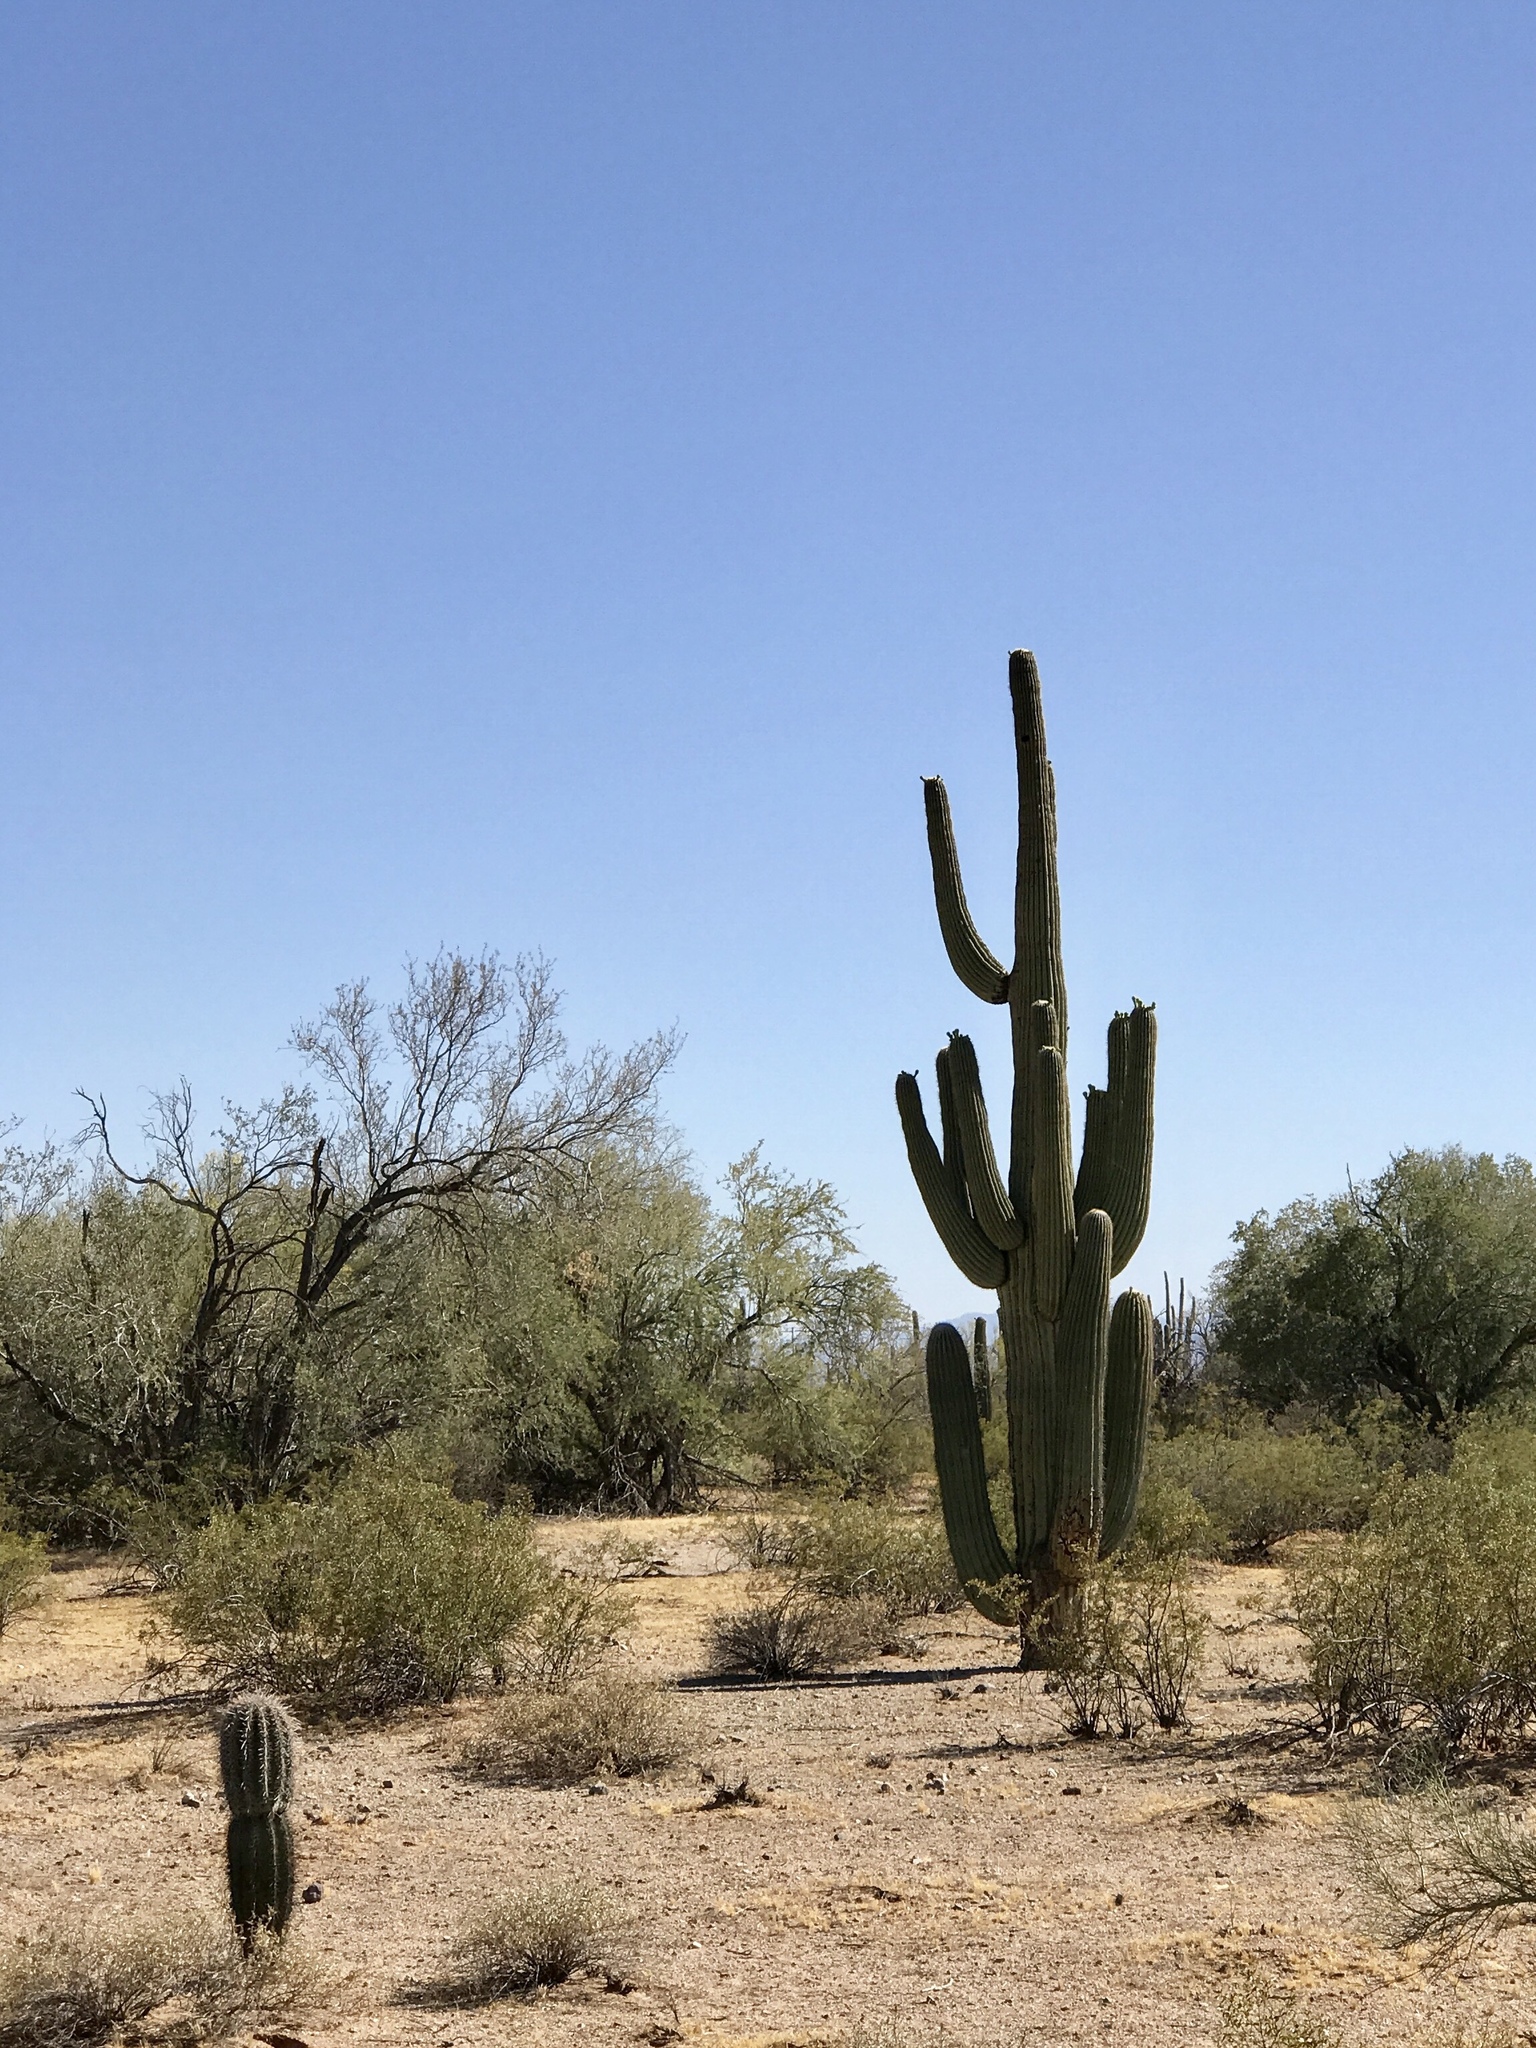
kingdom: Plantae
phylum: Tracheophyta
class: Magnoliopsida
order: Caryophyllales
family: Cactaceae
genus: Carnegiea
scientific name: Carnegiea gigantea
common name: Saguaro
